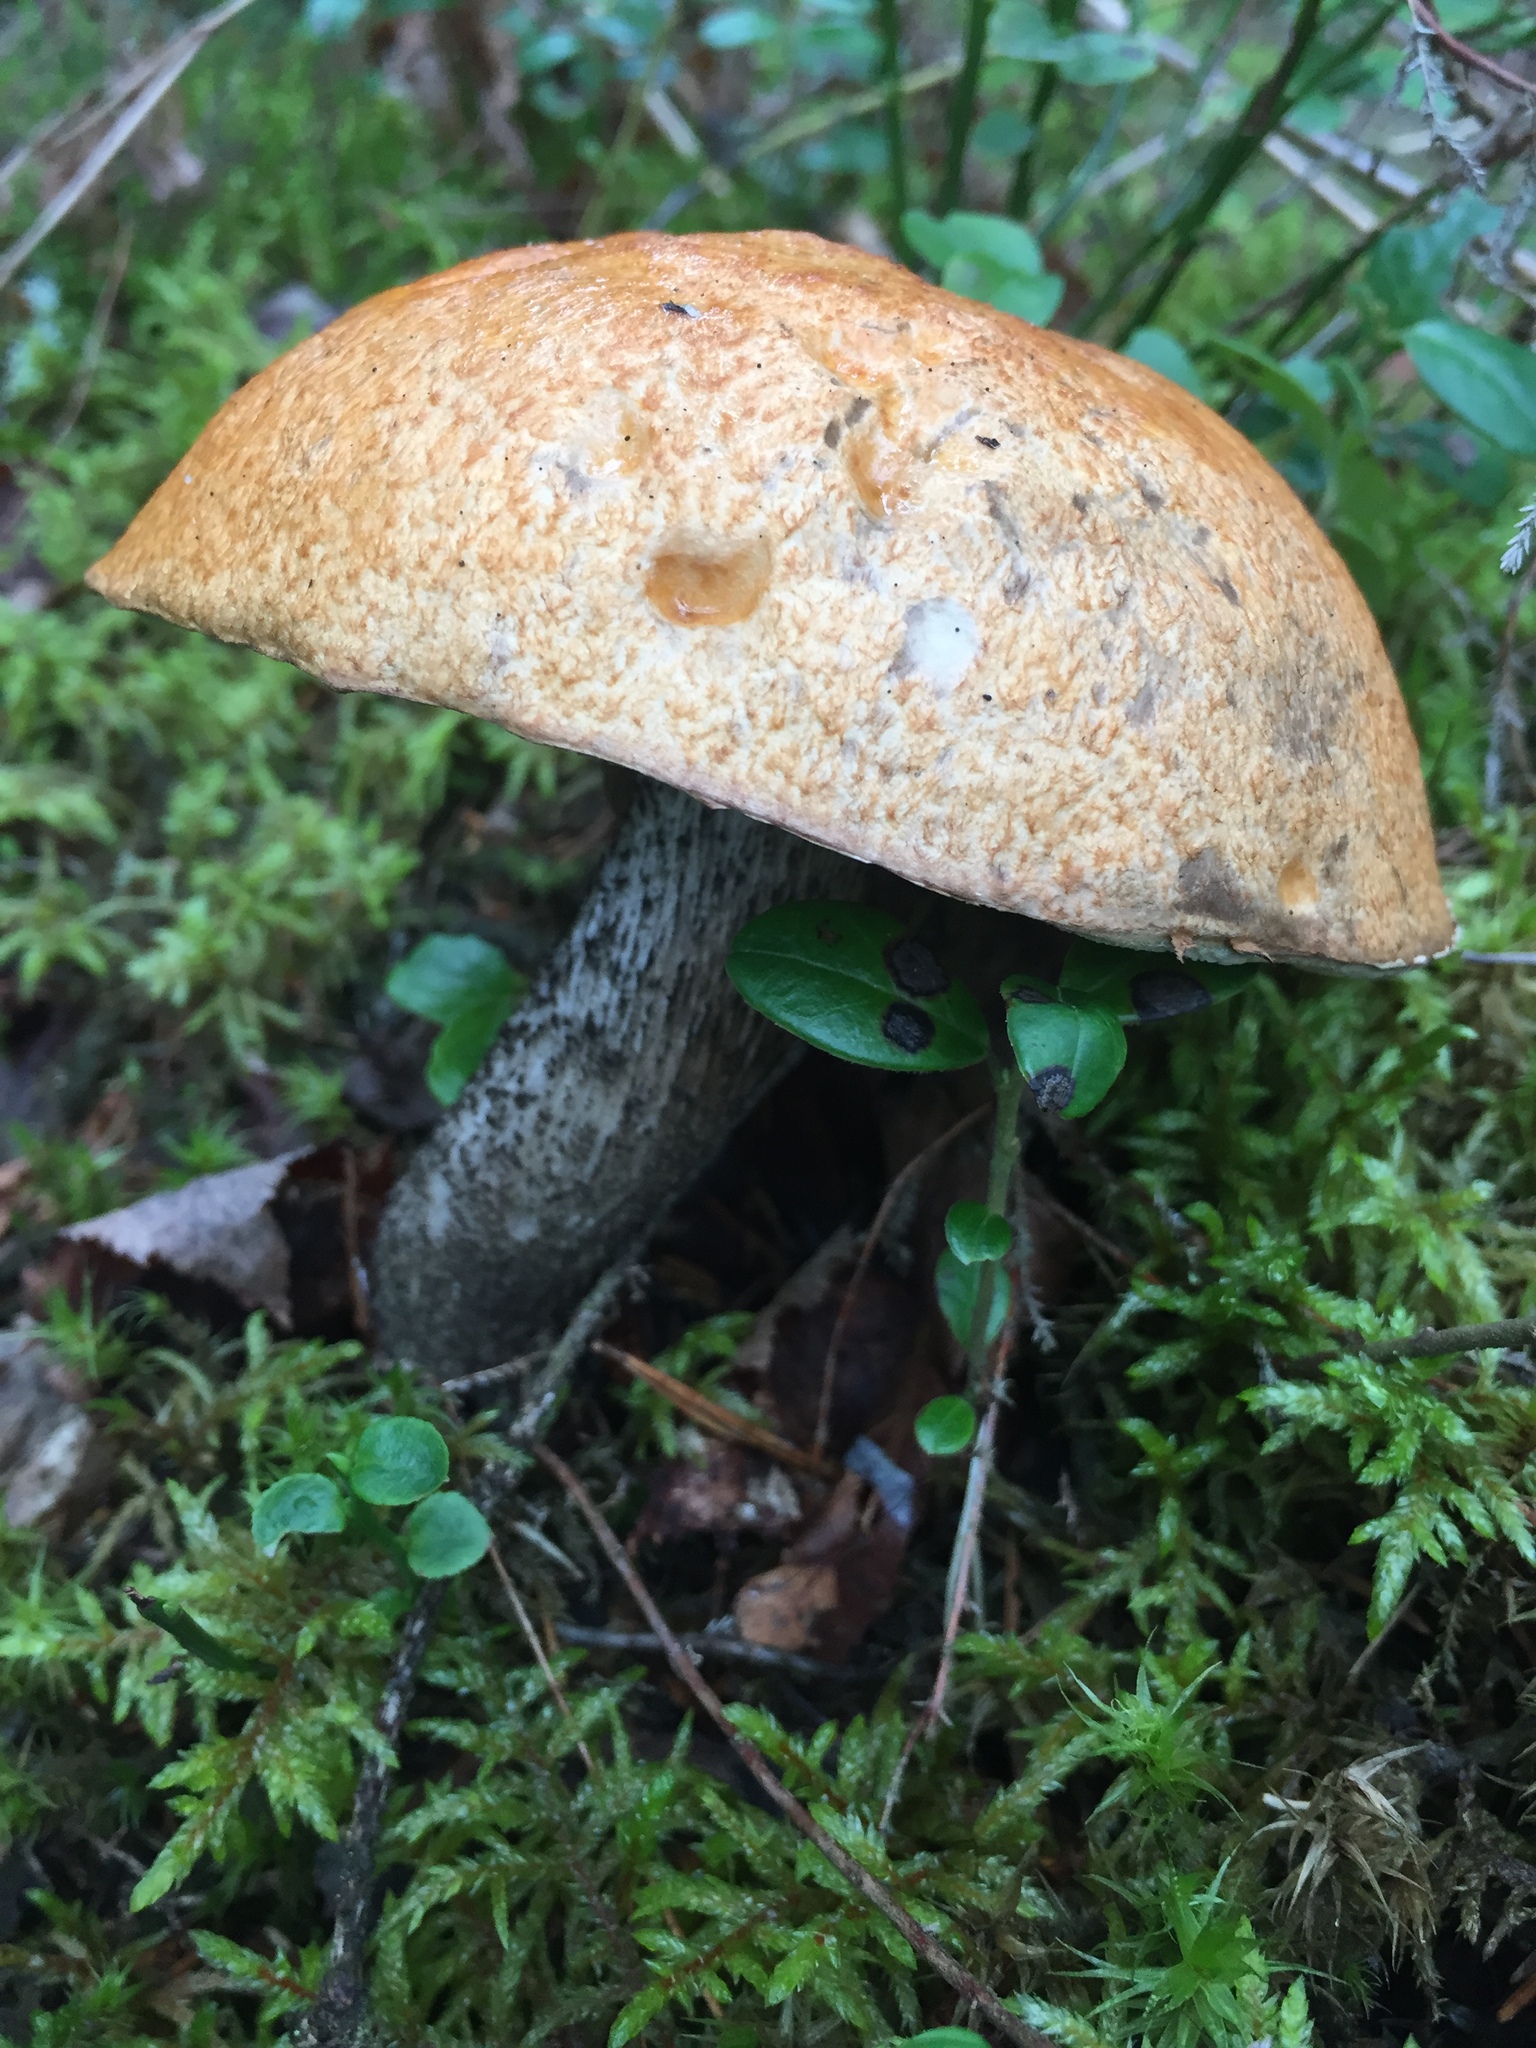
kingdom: Fungi
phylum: Basidiomycota
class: Agaricomycetes
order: Boletales
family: Boletaceae
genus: Leccinum
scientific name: Leccinum versipelle
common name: Orange birch bolete
